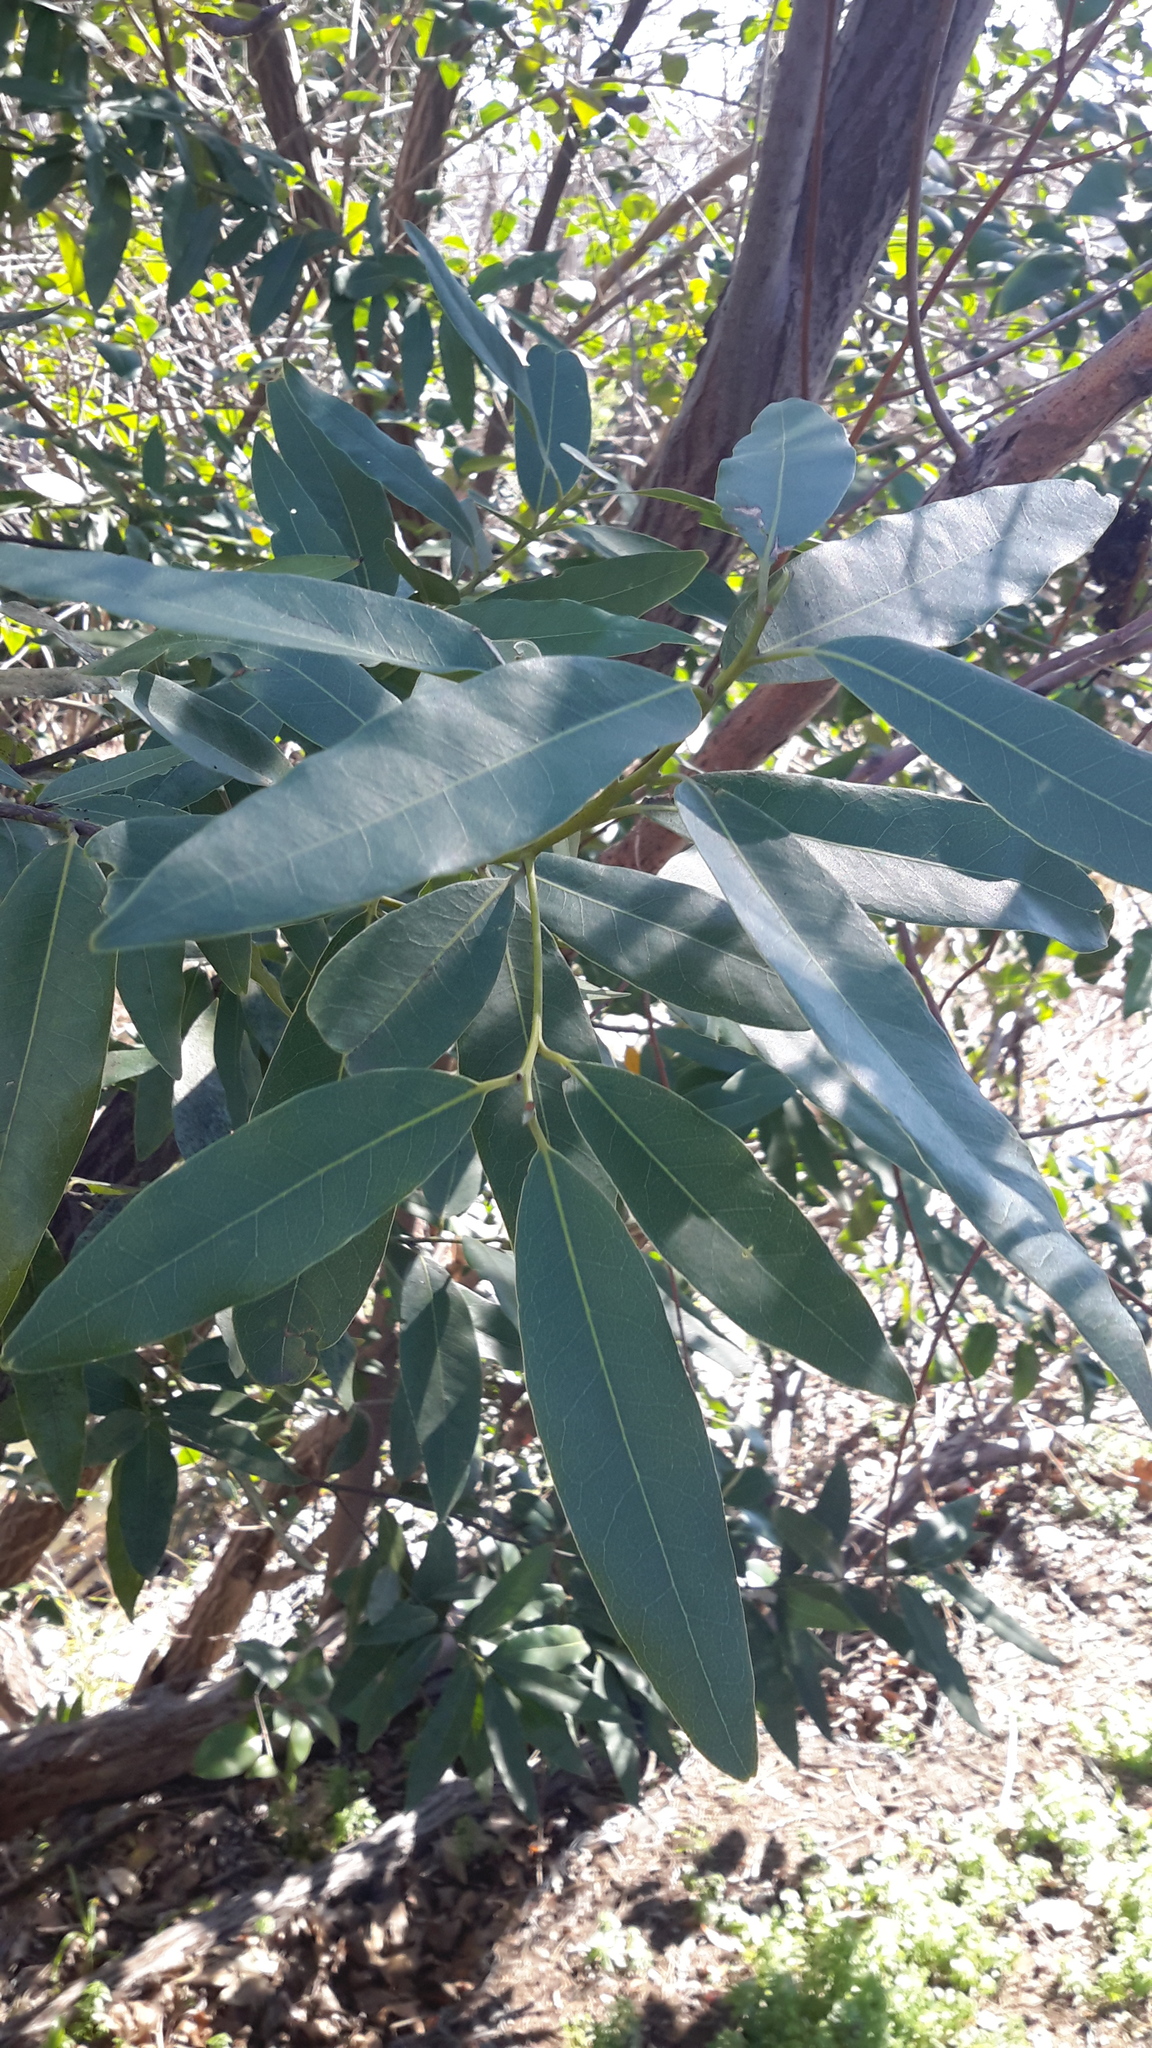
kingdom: Plantae
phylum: Tracheophyta
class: Magnoliopsida
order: Laurales
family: Lauraceae
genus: Umbellularia
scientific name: Umbellularia californica
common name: California bay
